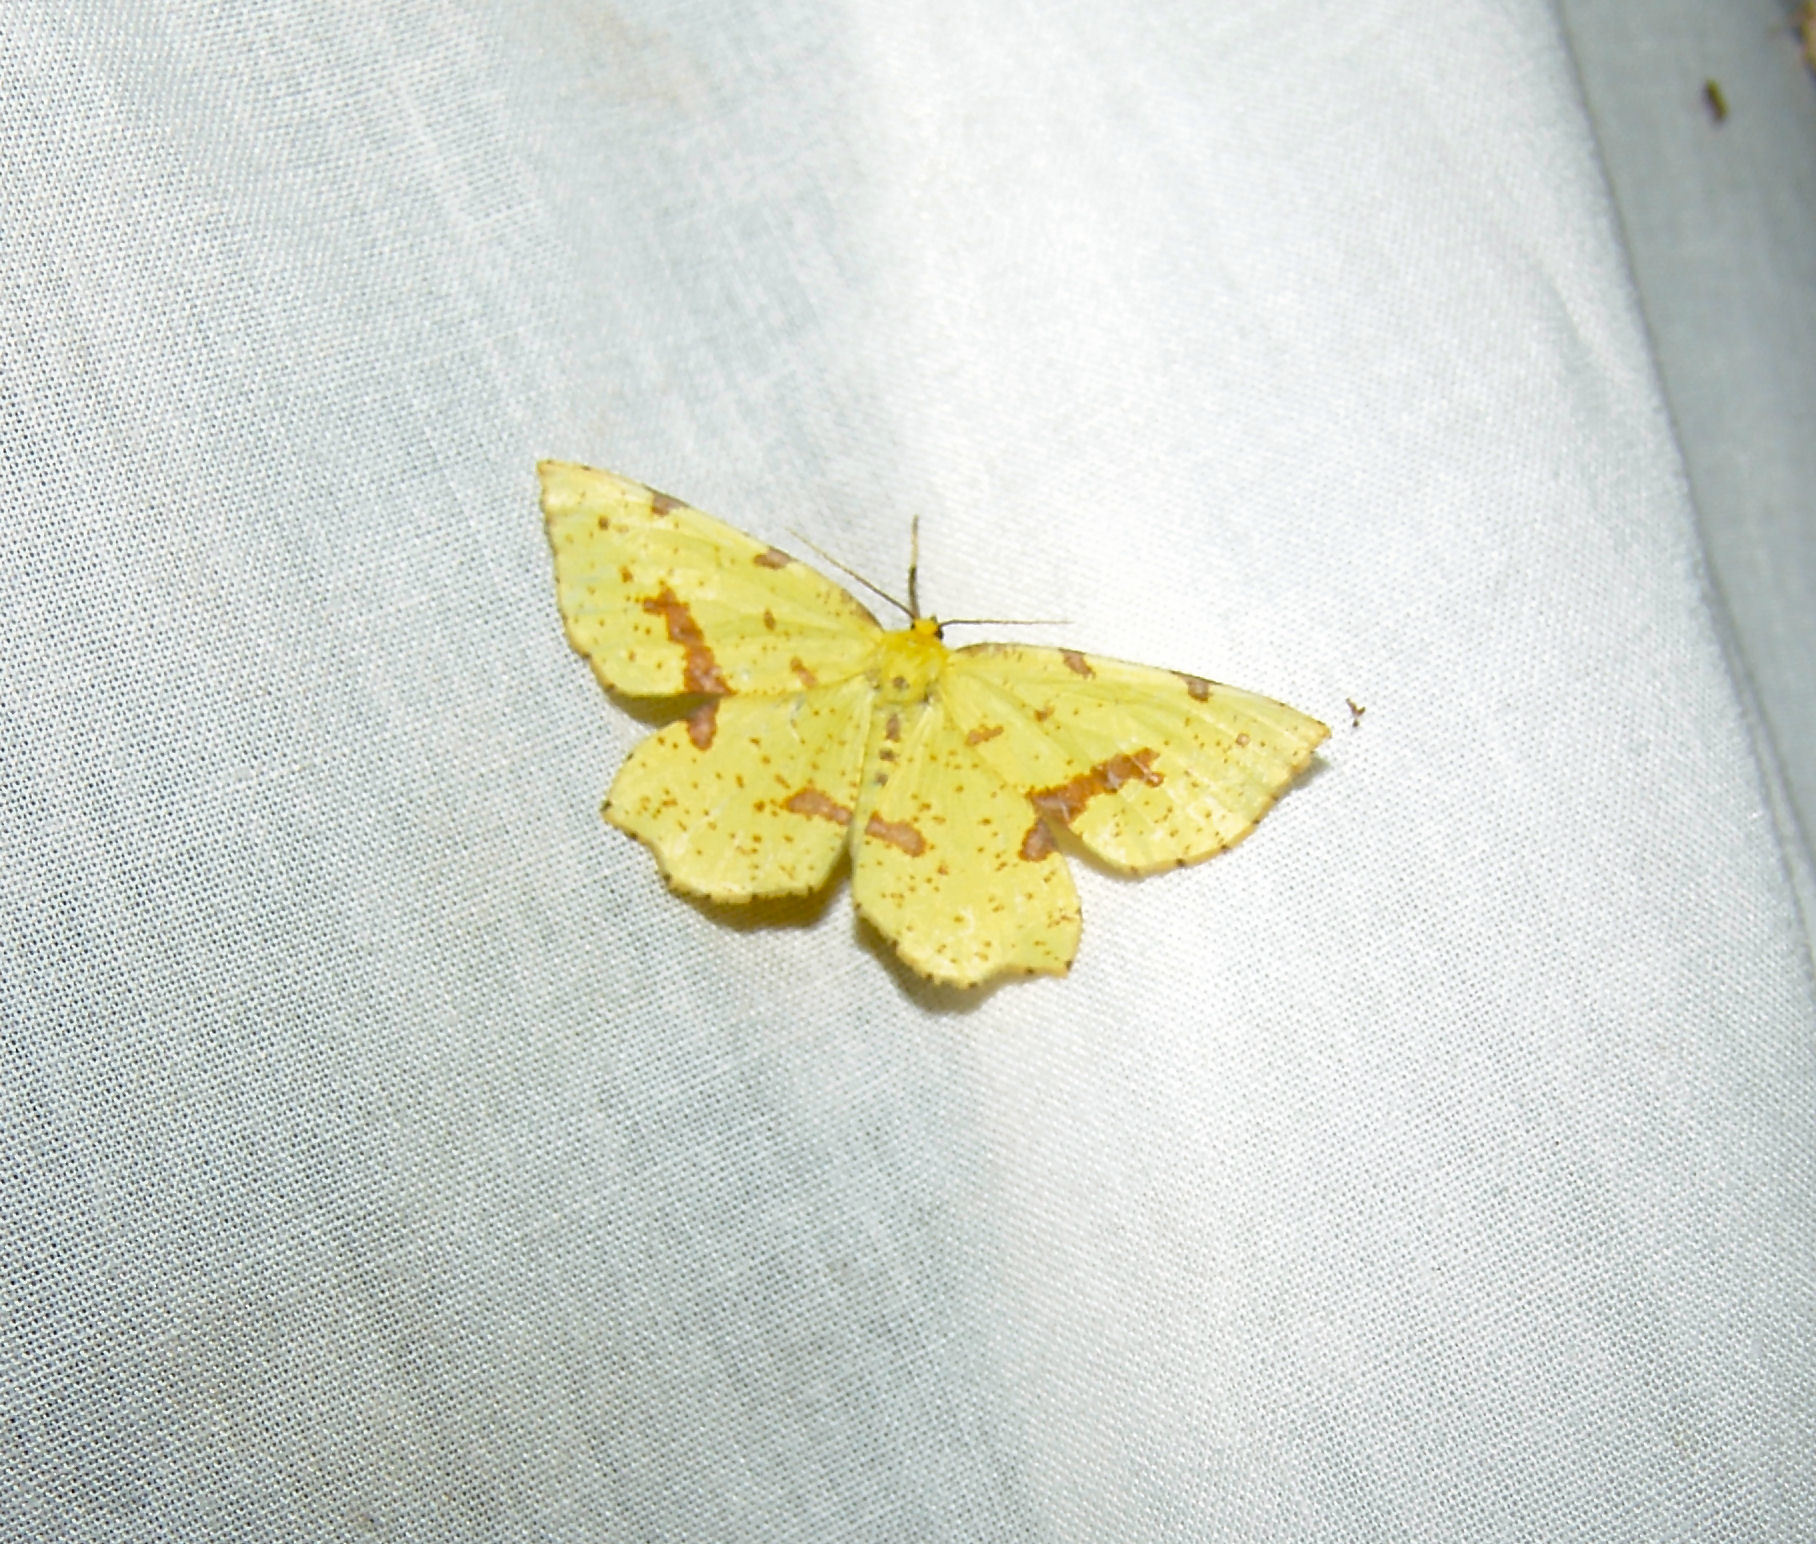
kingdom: Animalia
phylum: Arthropoda
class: Insecta
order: Lepidoptera
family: Geometridae
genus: Xanthotype
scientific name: Xanthotype
